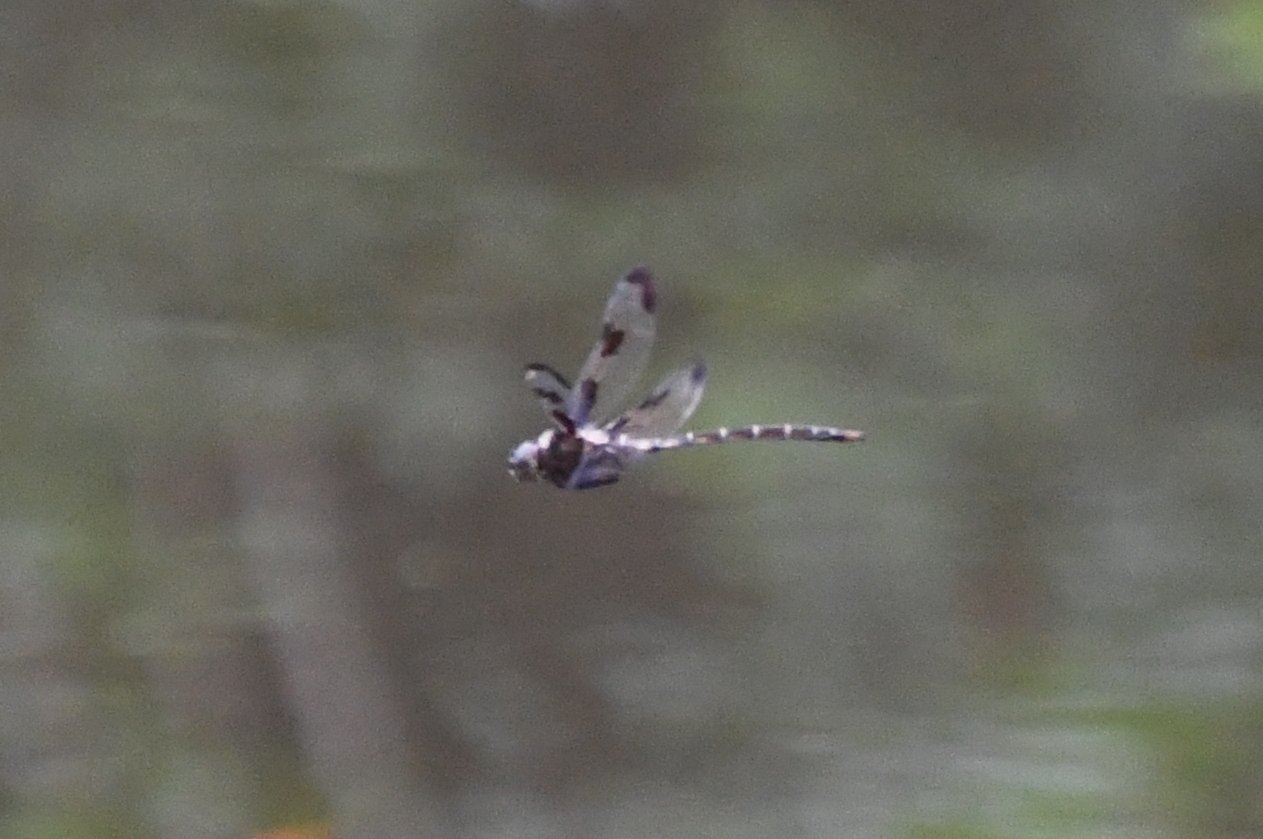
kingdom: Animalia
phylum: Arthropoda
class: Insecta
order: Odonata
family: Corduliidae
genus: Epitheca
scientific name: Epitheca princeps
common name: Prince baskettail
